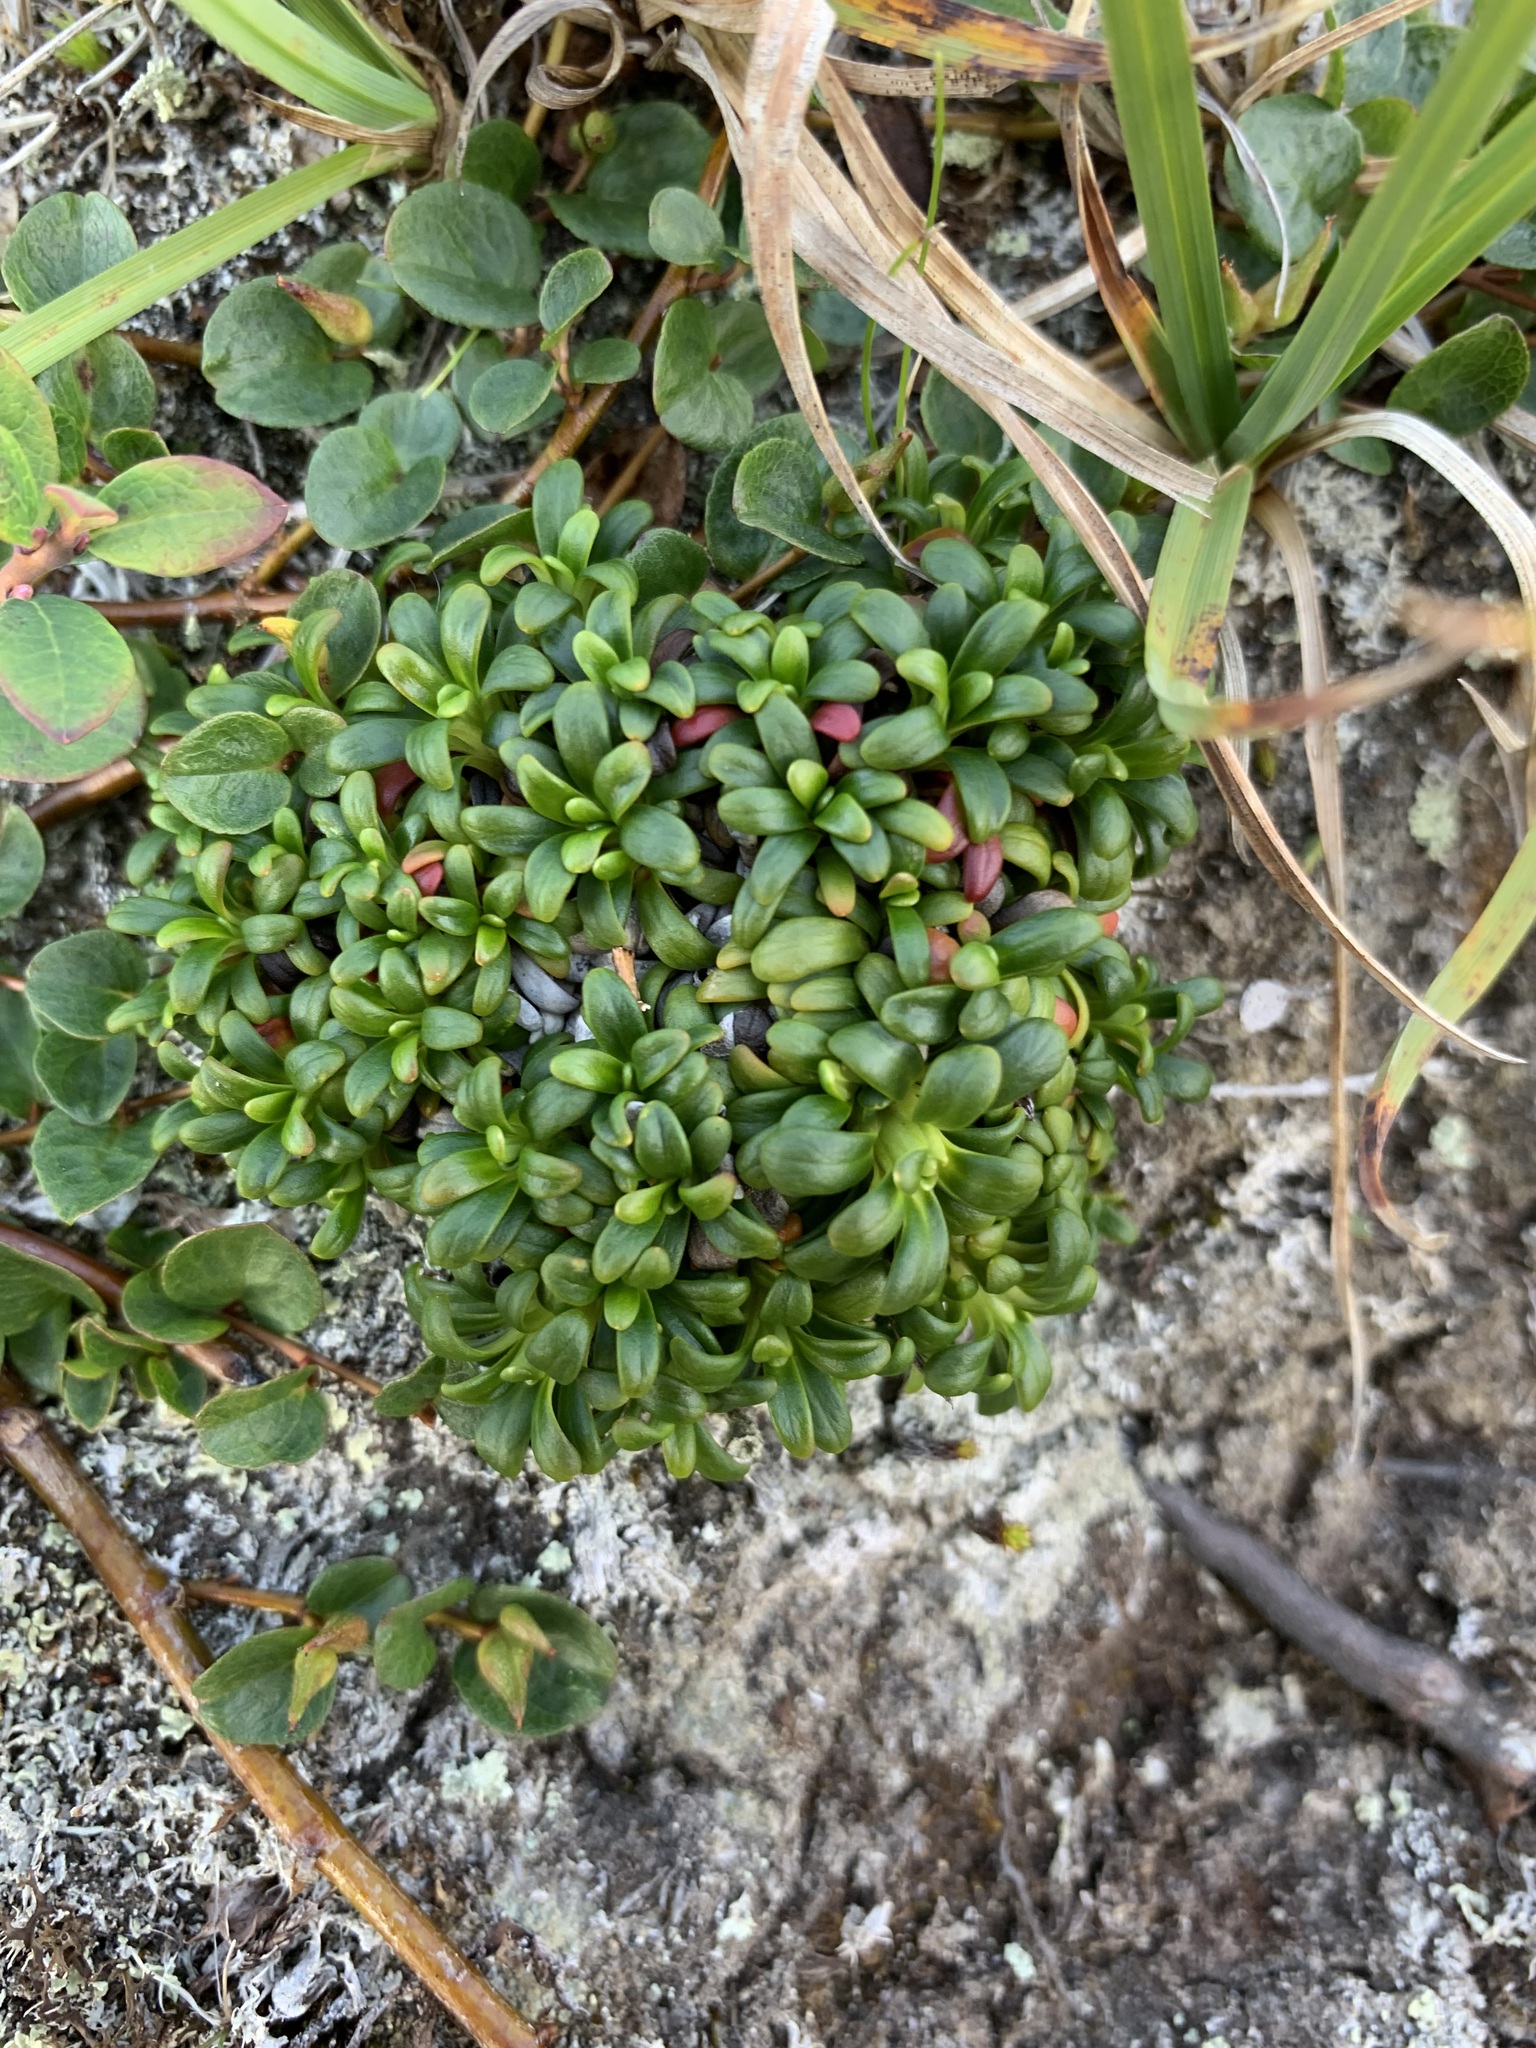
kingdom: Plantae
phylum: Tracheophyta
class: Magnoliopsida
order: Ericales
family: Diapensiaceae
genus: Diapensia
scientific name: Diapensia lapponica
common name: Diapensia
